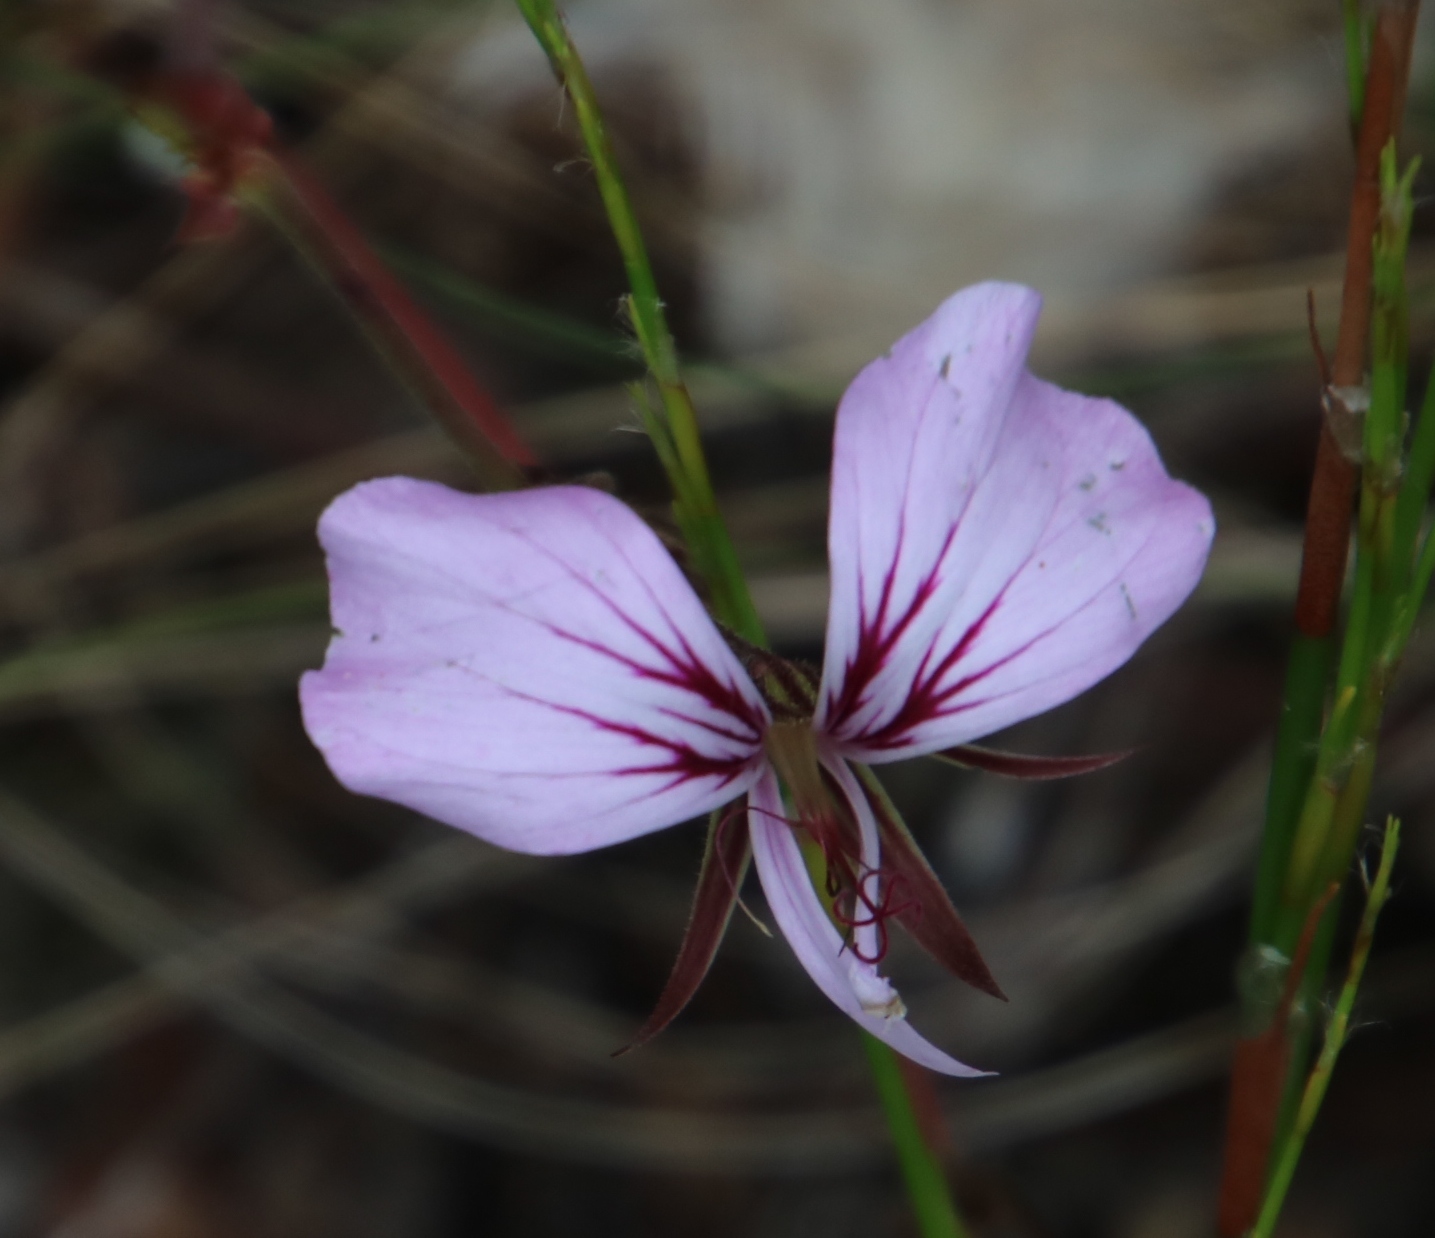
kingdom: Plantae
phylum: Tracheophyta
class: Magnoliopsida
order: Geraniales
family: Geraniaceae
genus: Pelargonium
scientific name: Pelargonium myrrhifolium
